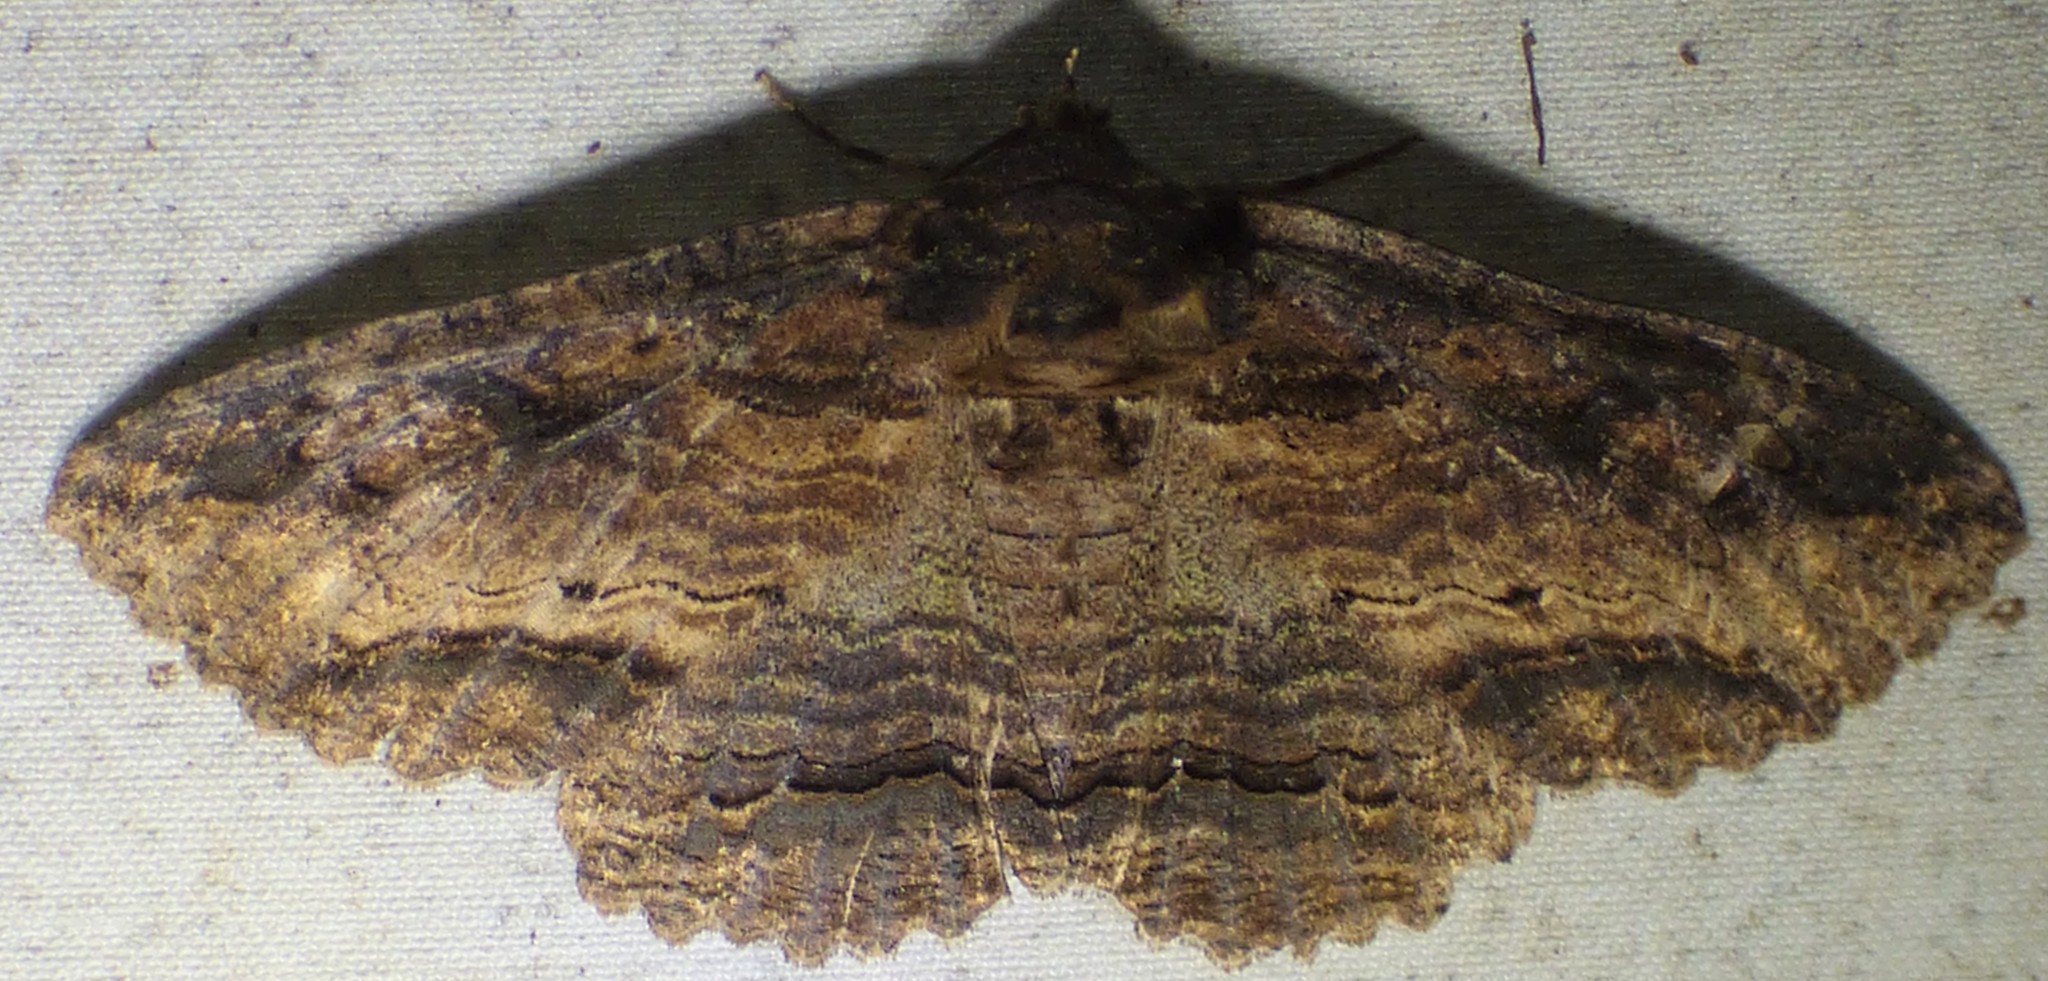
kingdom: Animalia
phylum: Arthropoda
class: Insecta
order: Lepidoptera
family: Erebidae
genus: Zale
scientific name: Zale lunata
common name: Lunate zale moth
